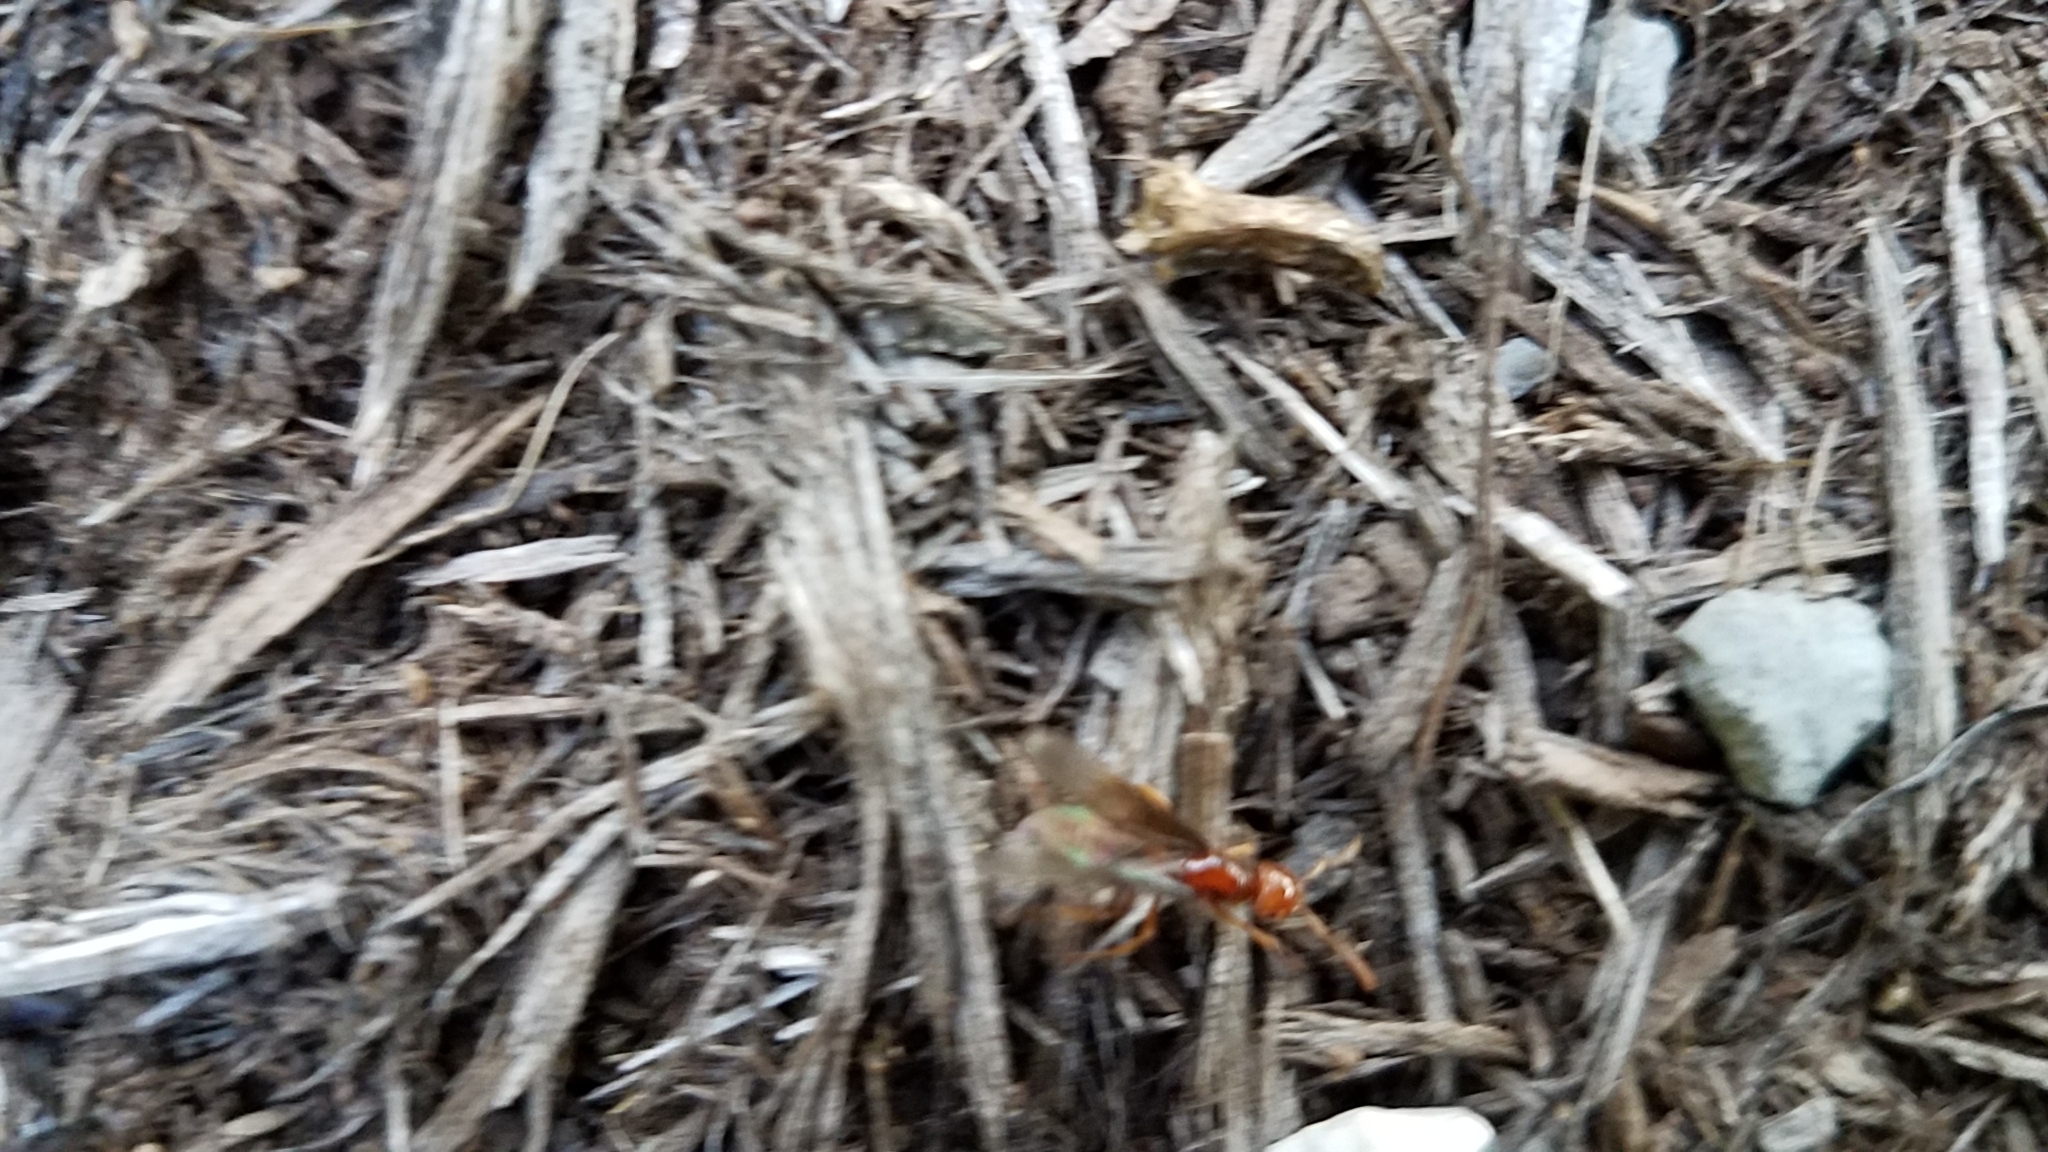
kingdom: Animalia
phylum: Arthropoda
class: Insecta
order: Hymenoptera
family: Formicidae
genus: Acanthomyops
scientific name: Acanthomyops interjectus
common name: Larger yellow ant
